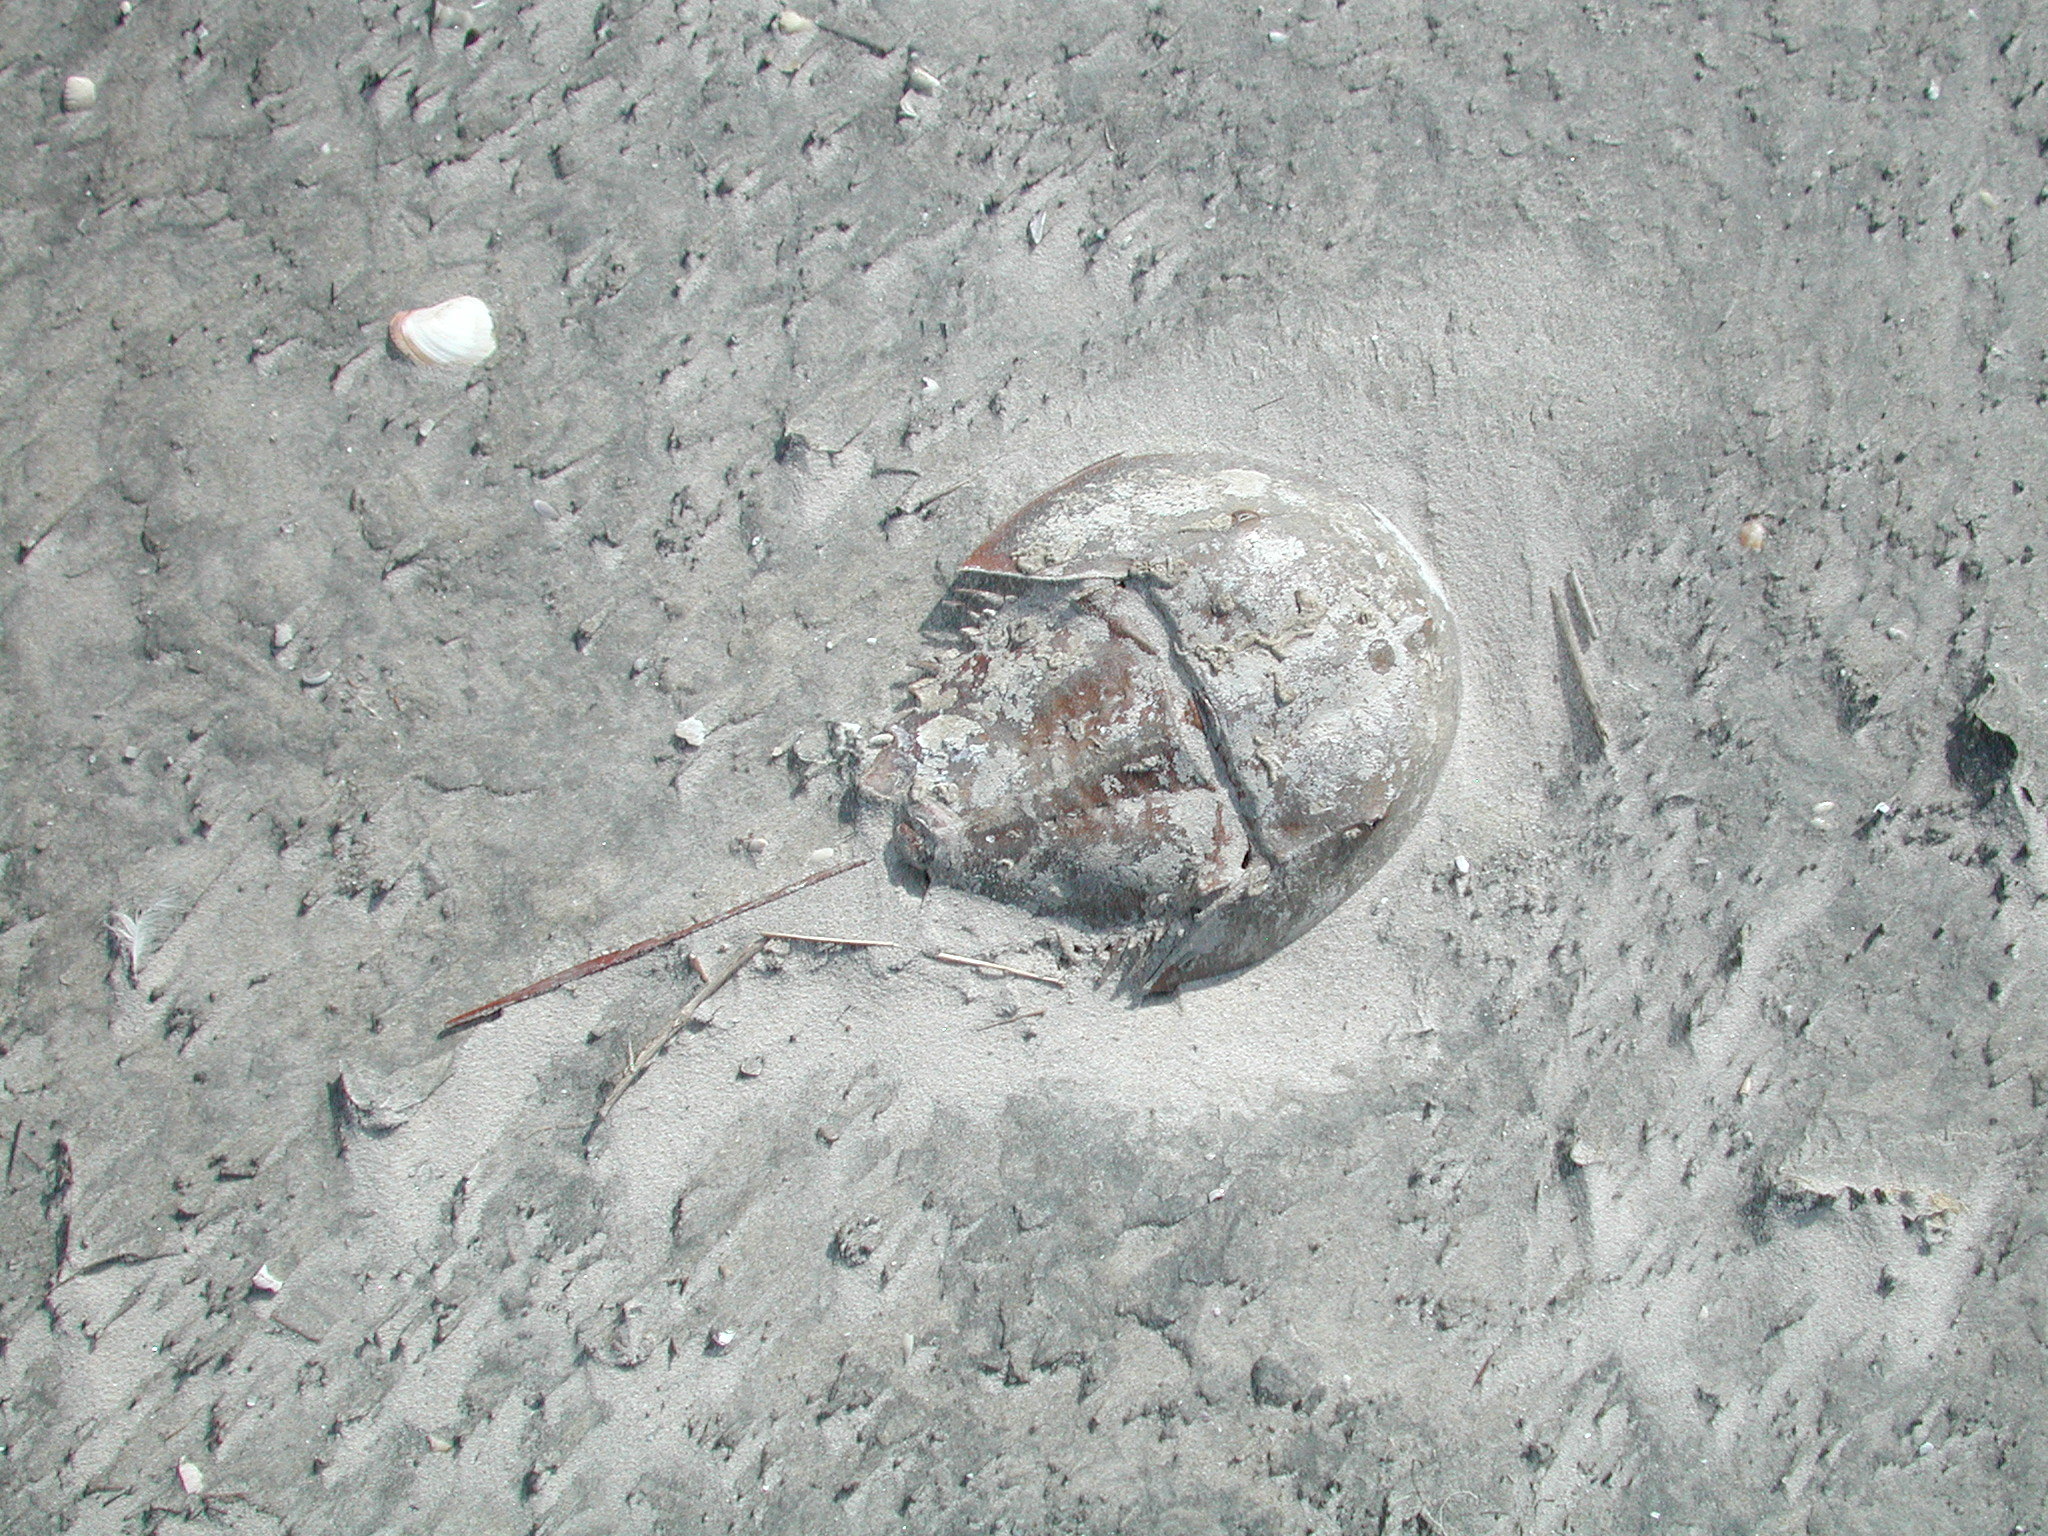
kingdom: Animalia
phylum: Arthropoda
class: Merostomata
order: Xiphosurida
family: Limulidae
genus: Limulus
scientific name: Limulus polyphemus
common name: Horseshoe crab
